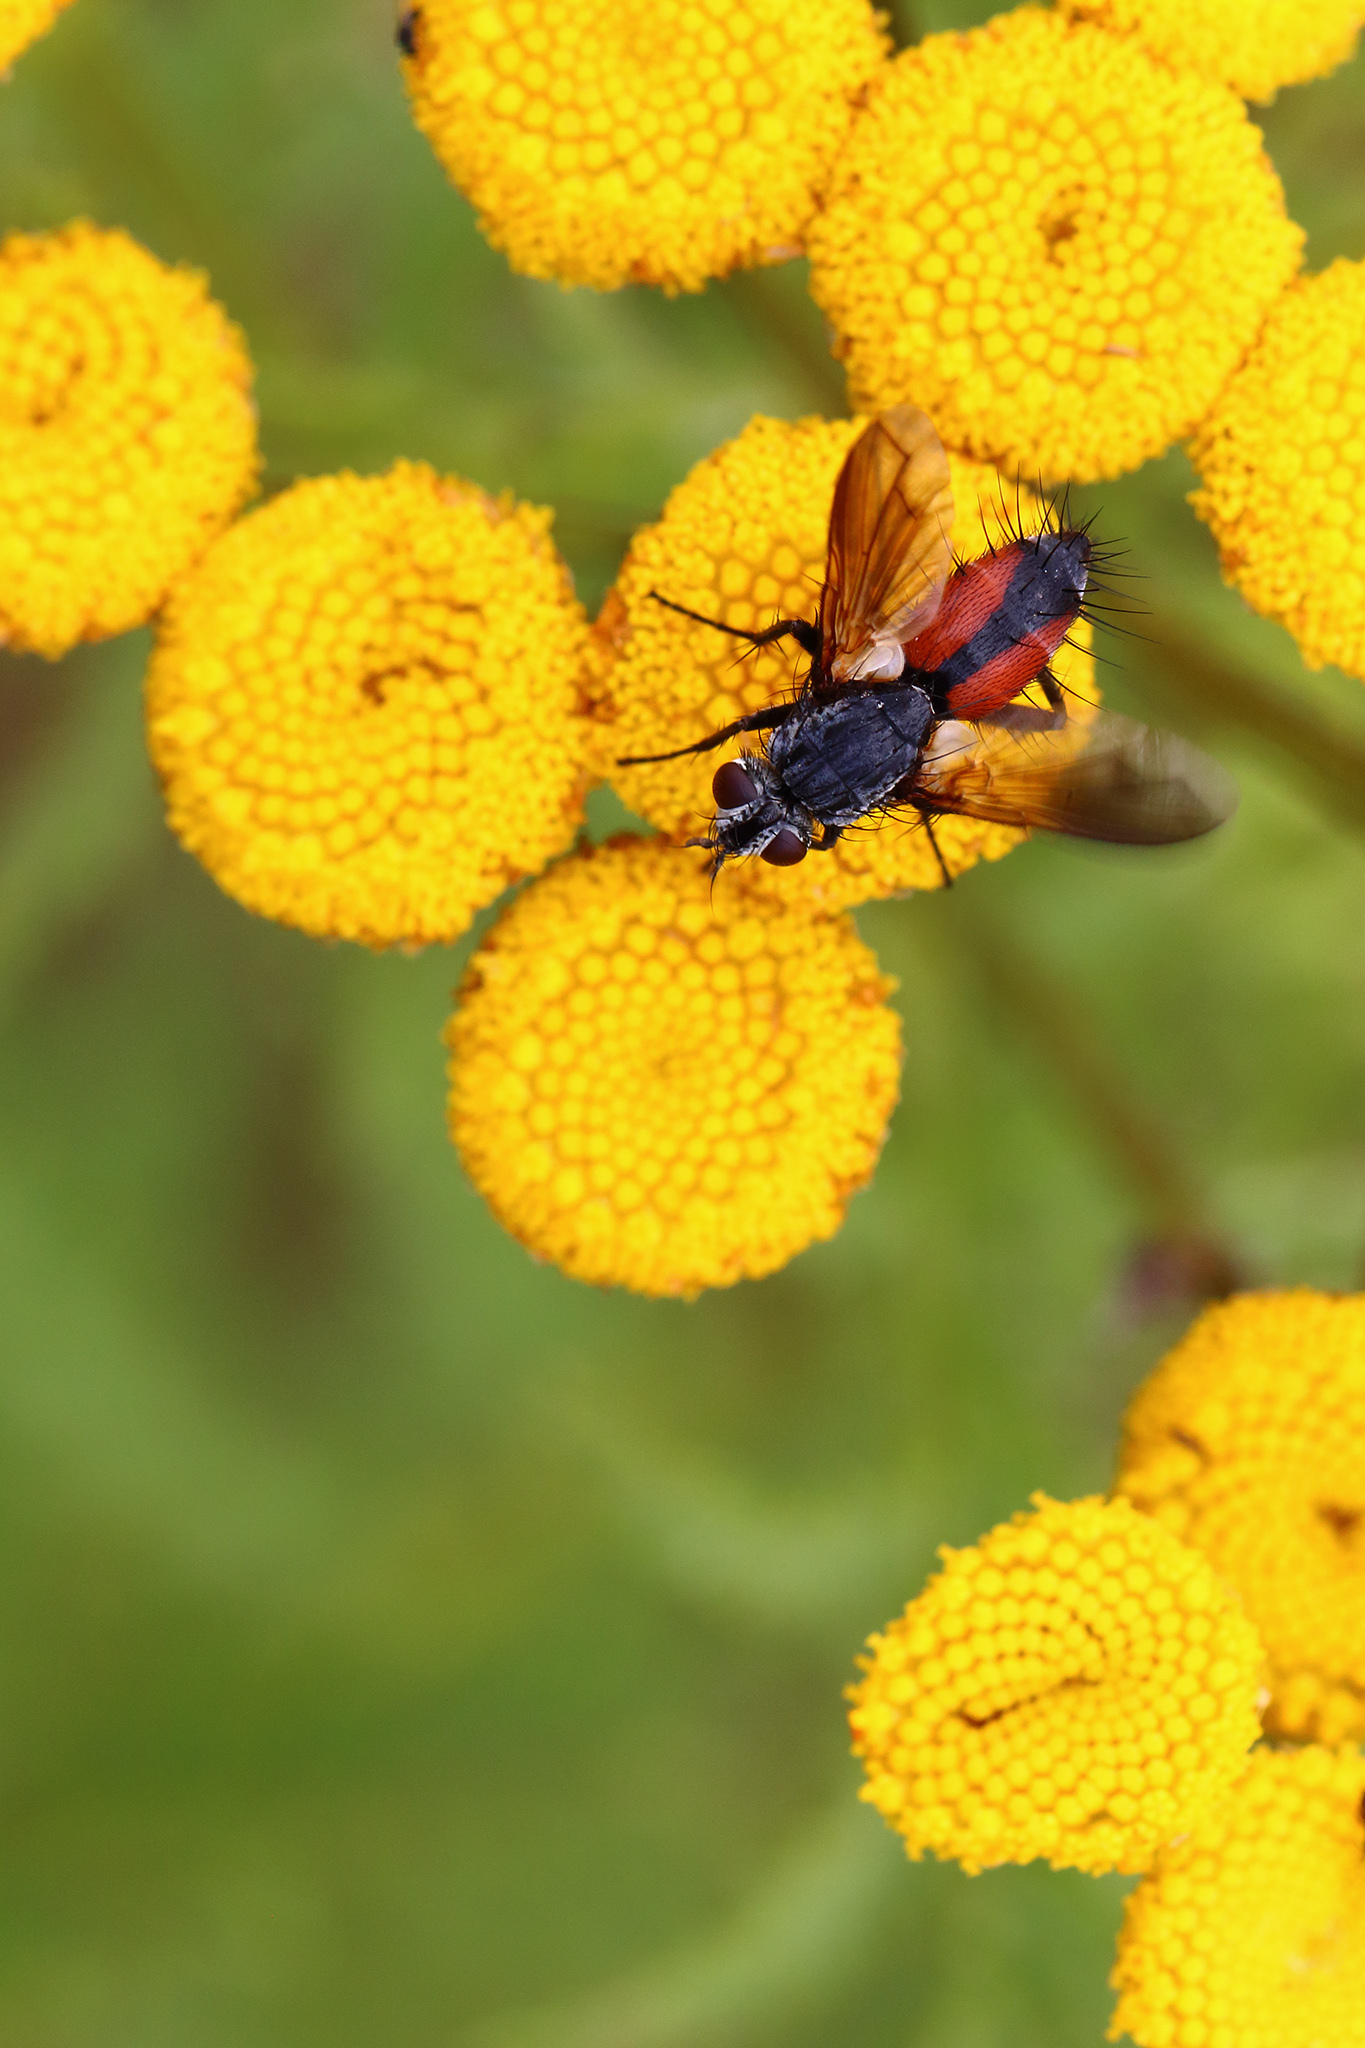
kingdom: Animalia
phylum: Arthropoda
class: Insecta
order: Diptera
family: Tachinidae
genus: Eriothrix
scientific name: Eriothrix rufomaculatus
